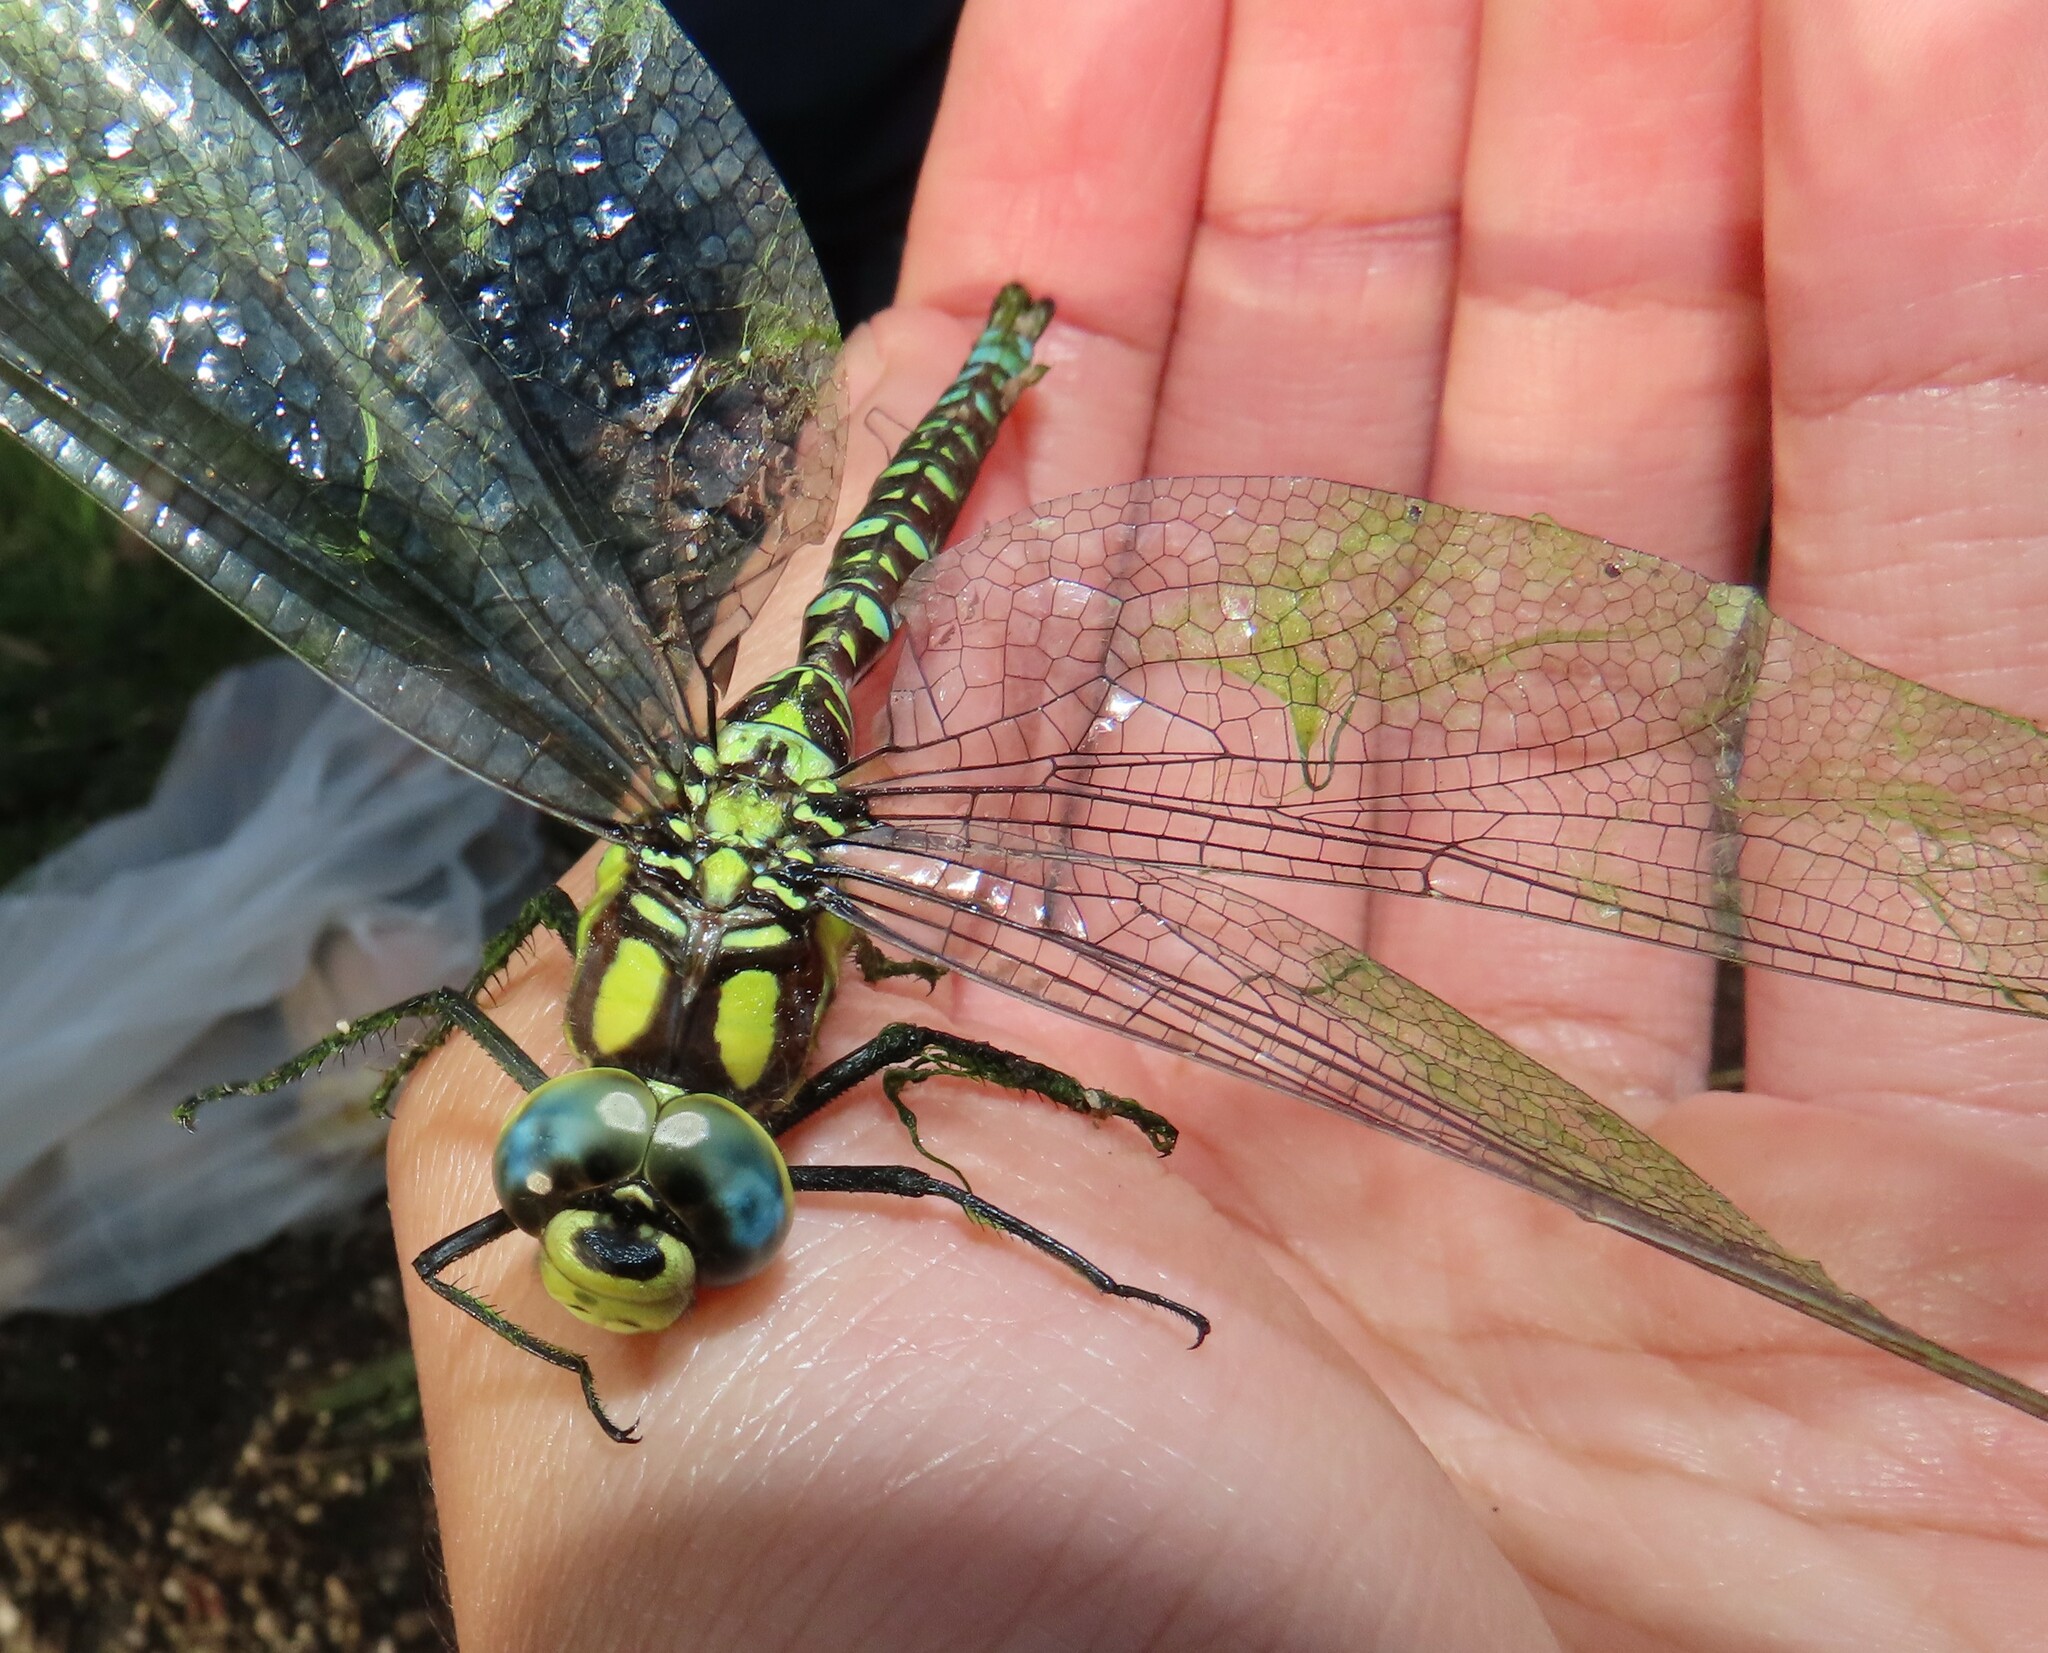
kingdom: Animalia
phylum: Arthropoda
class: Insecta
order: Odonata
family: Aeshnidae
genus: Aeshna
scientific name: Aeshna cyanea
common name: Southern hawker
